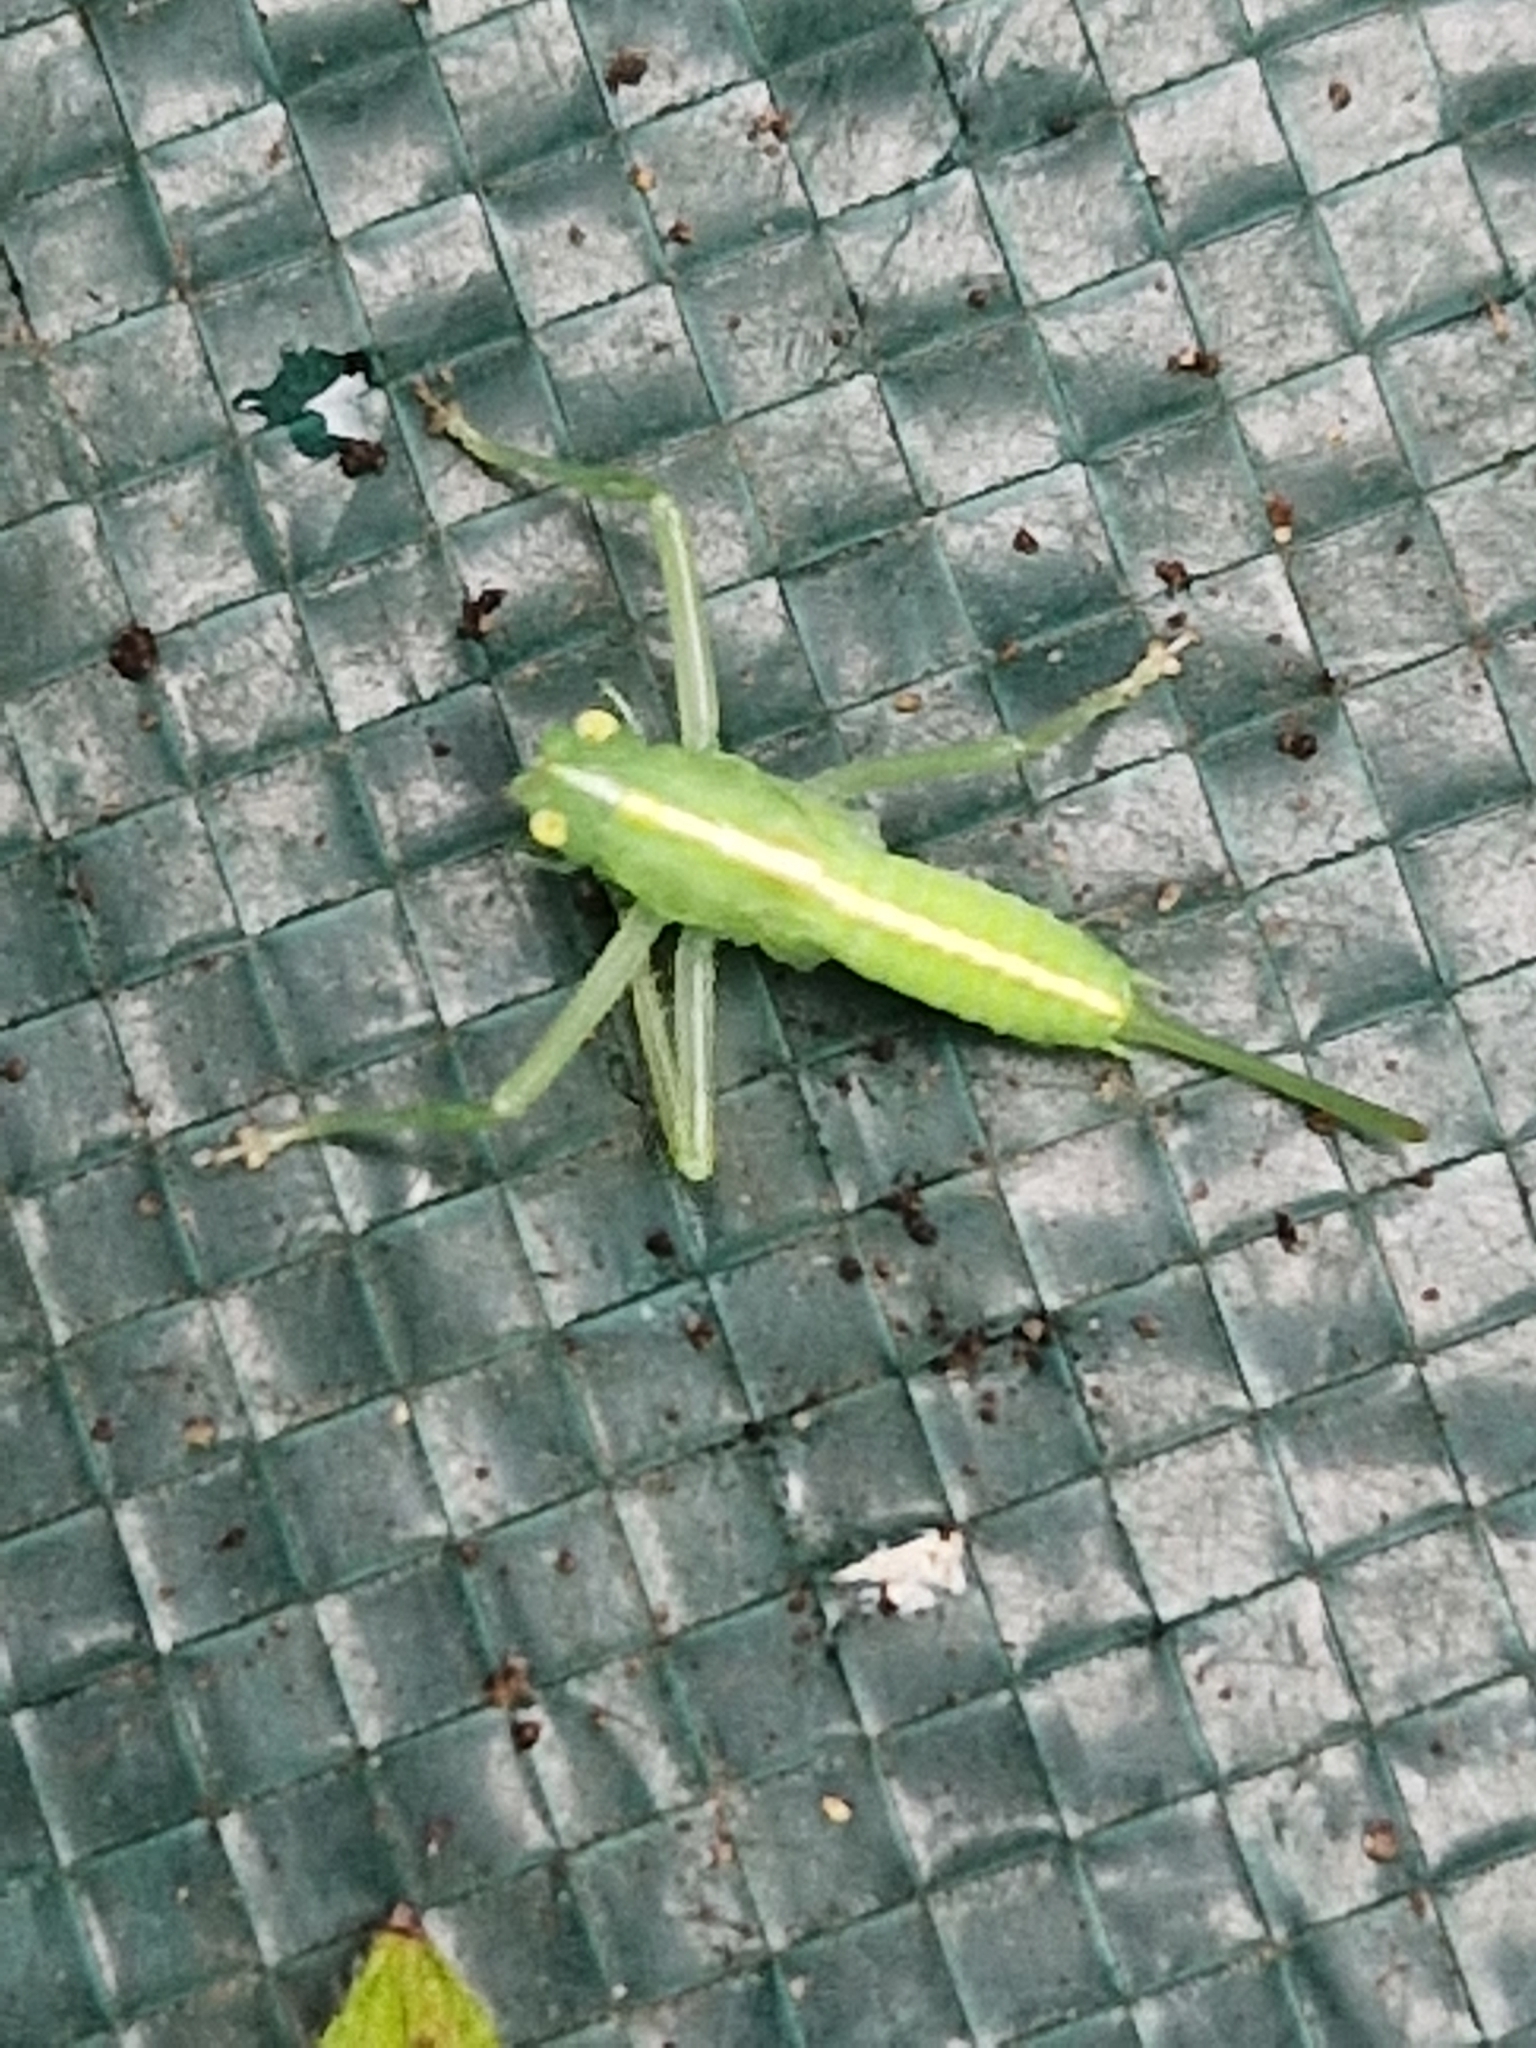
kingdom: Animalia
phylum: Arthropoda
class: Insecta
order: Orthoptera
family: Tettigoniidae
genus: Meconema
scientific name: Meconema meridionale
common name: Southern oak bush-cricket
